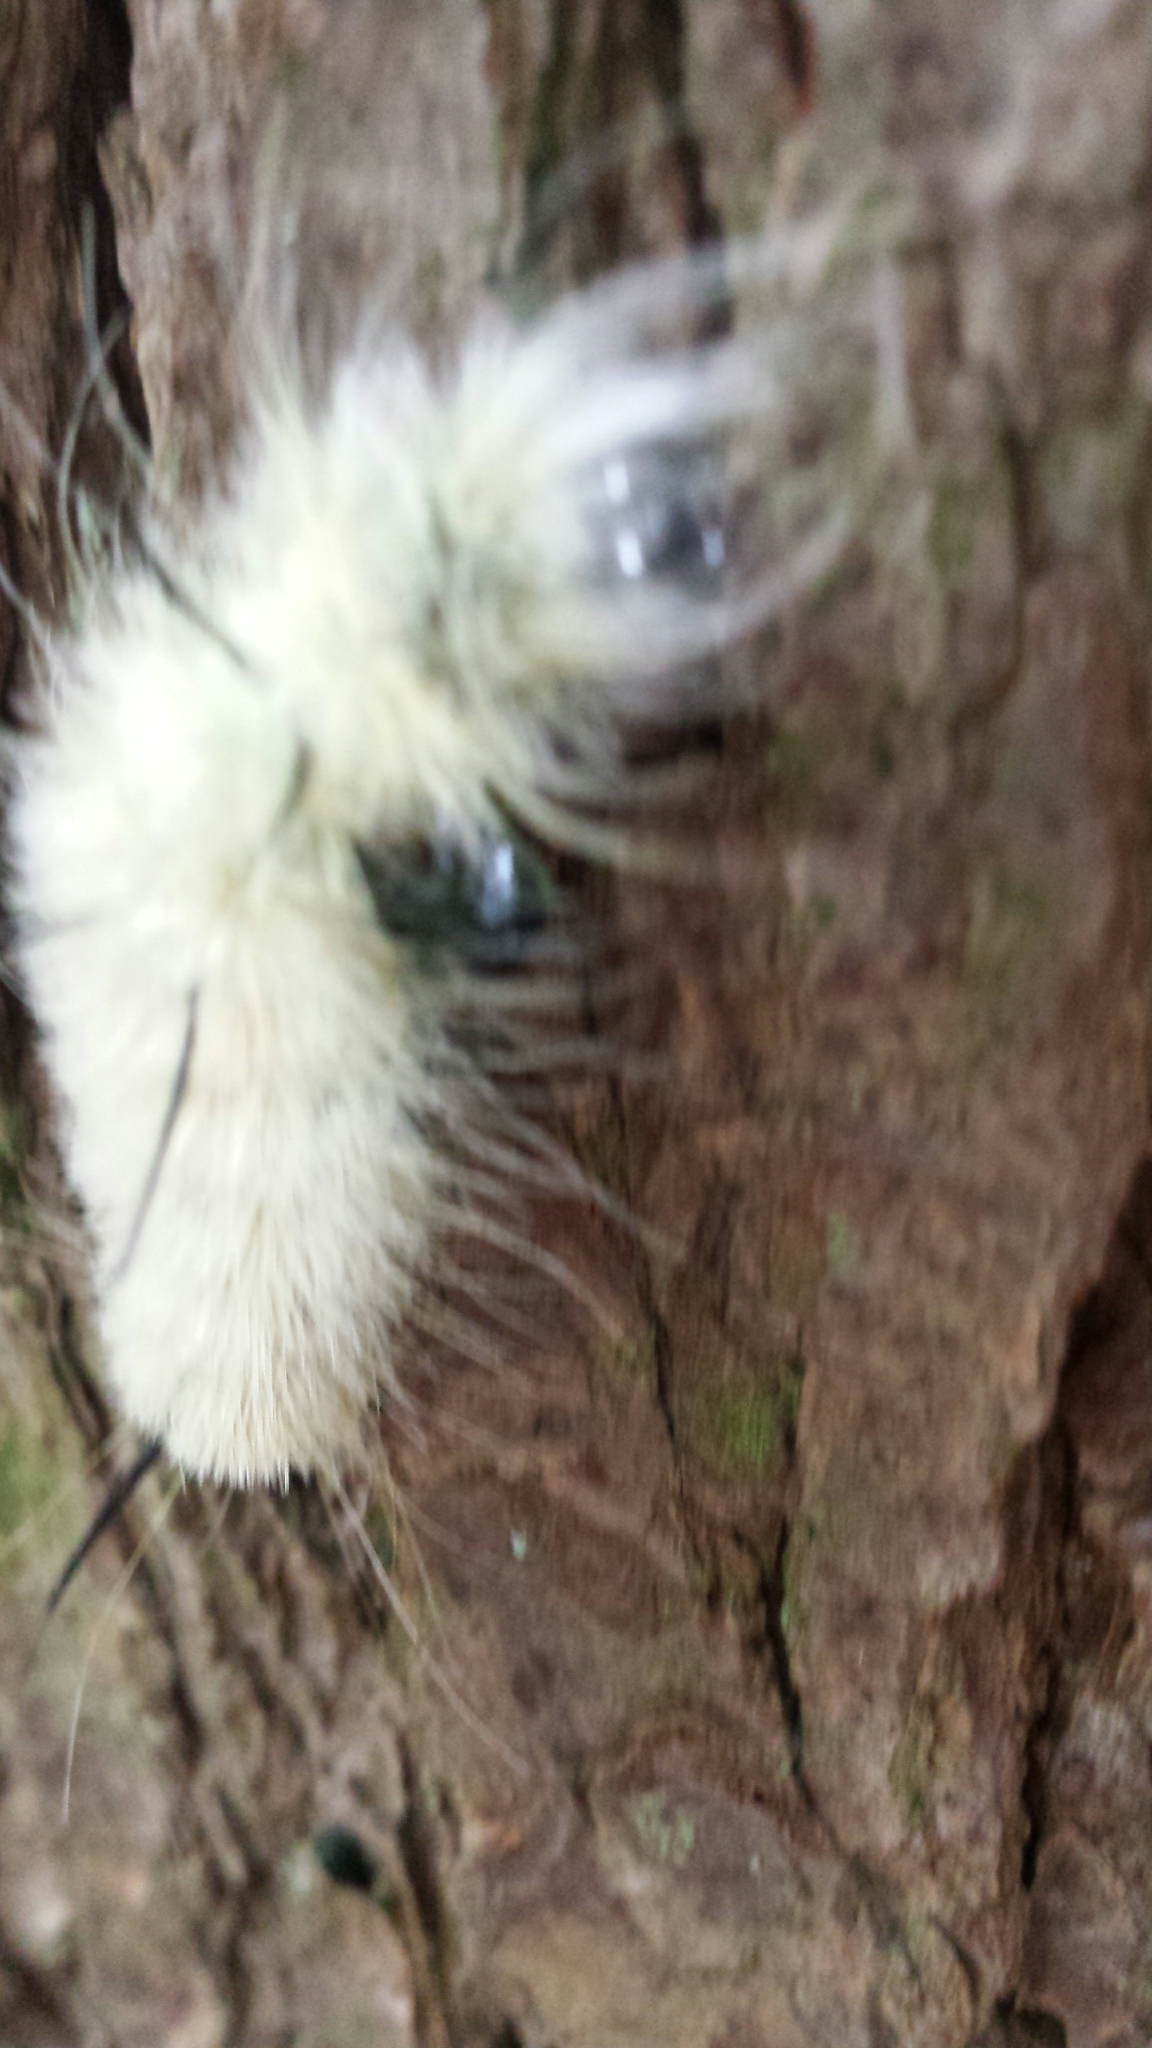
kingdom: Animalia
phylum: Arthropoda
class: Insecta
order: Lepidoptera
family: Noctuidae
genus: Acronicta
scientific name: Acronicta americana
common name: American dagger
